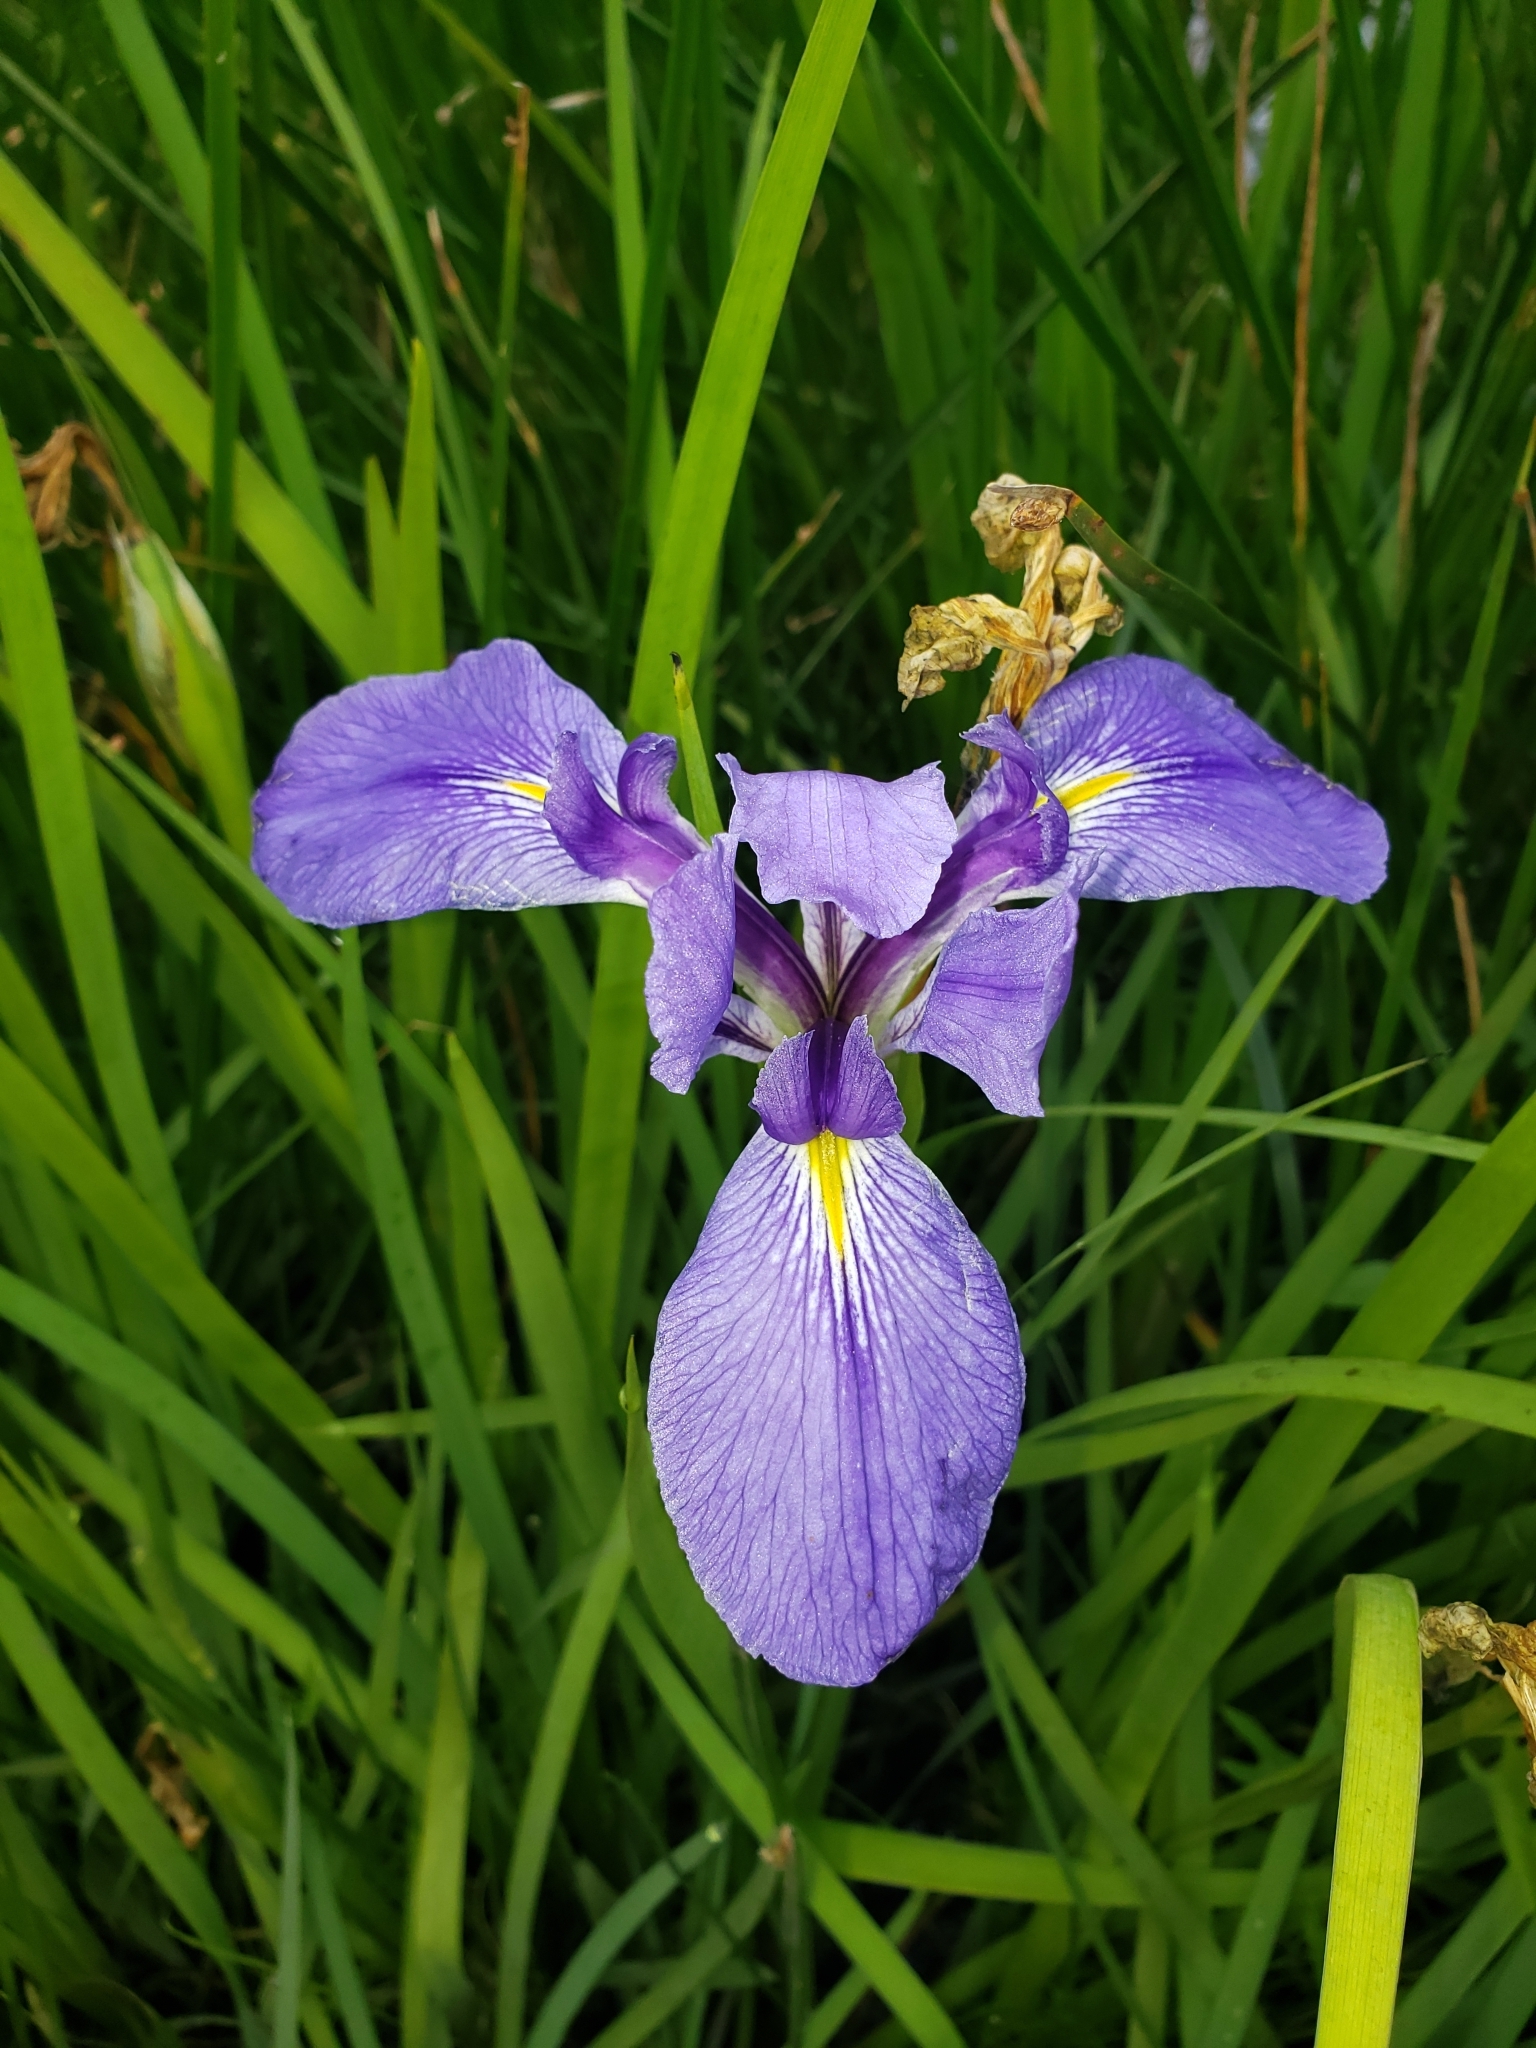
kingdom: Plantae
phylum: Tracheophyta
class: Liliopsida
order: Asparagales
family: Iridaceae
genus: Iris
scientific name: Iris giganticaerulea
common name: Giant blue iris
